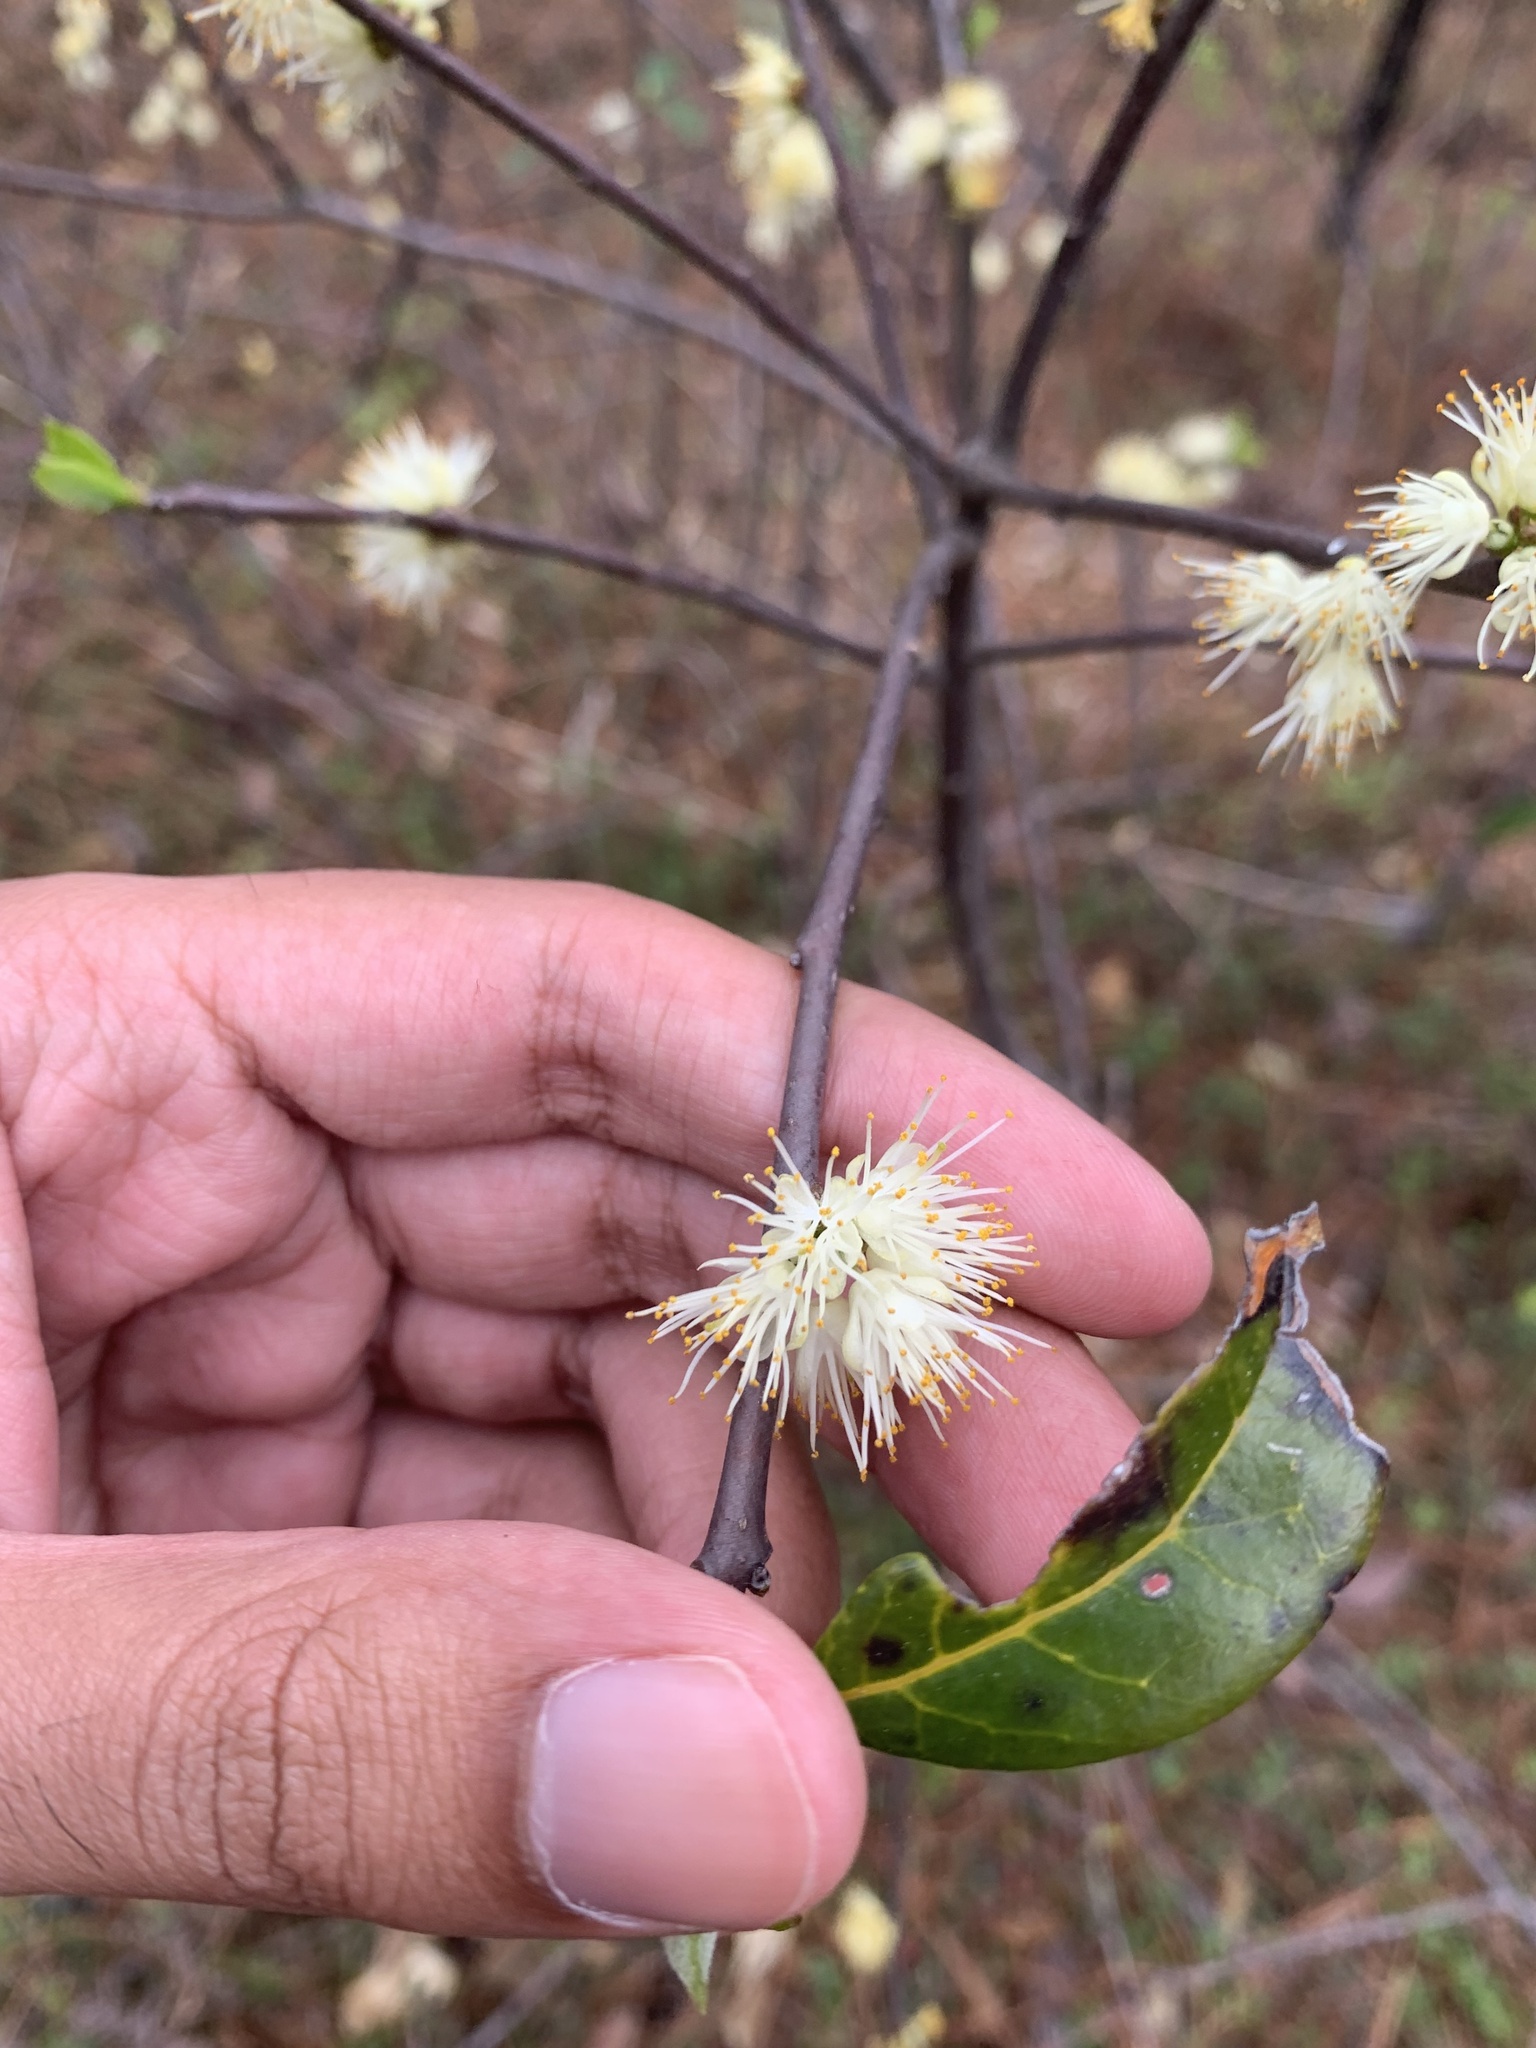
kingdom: Plantae
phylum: Tracheophyta
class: Magnoliopsida
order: Ericales
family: Symplocaceae
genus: Symplocos
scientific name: Symplocos tinctoria
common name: Horse-sugar
